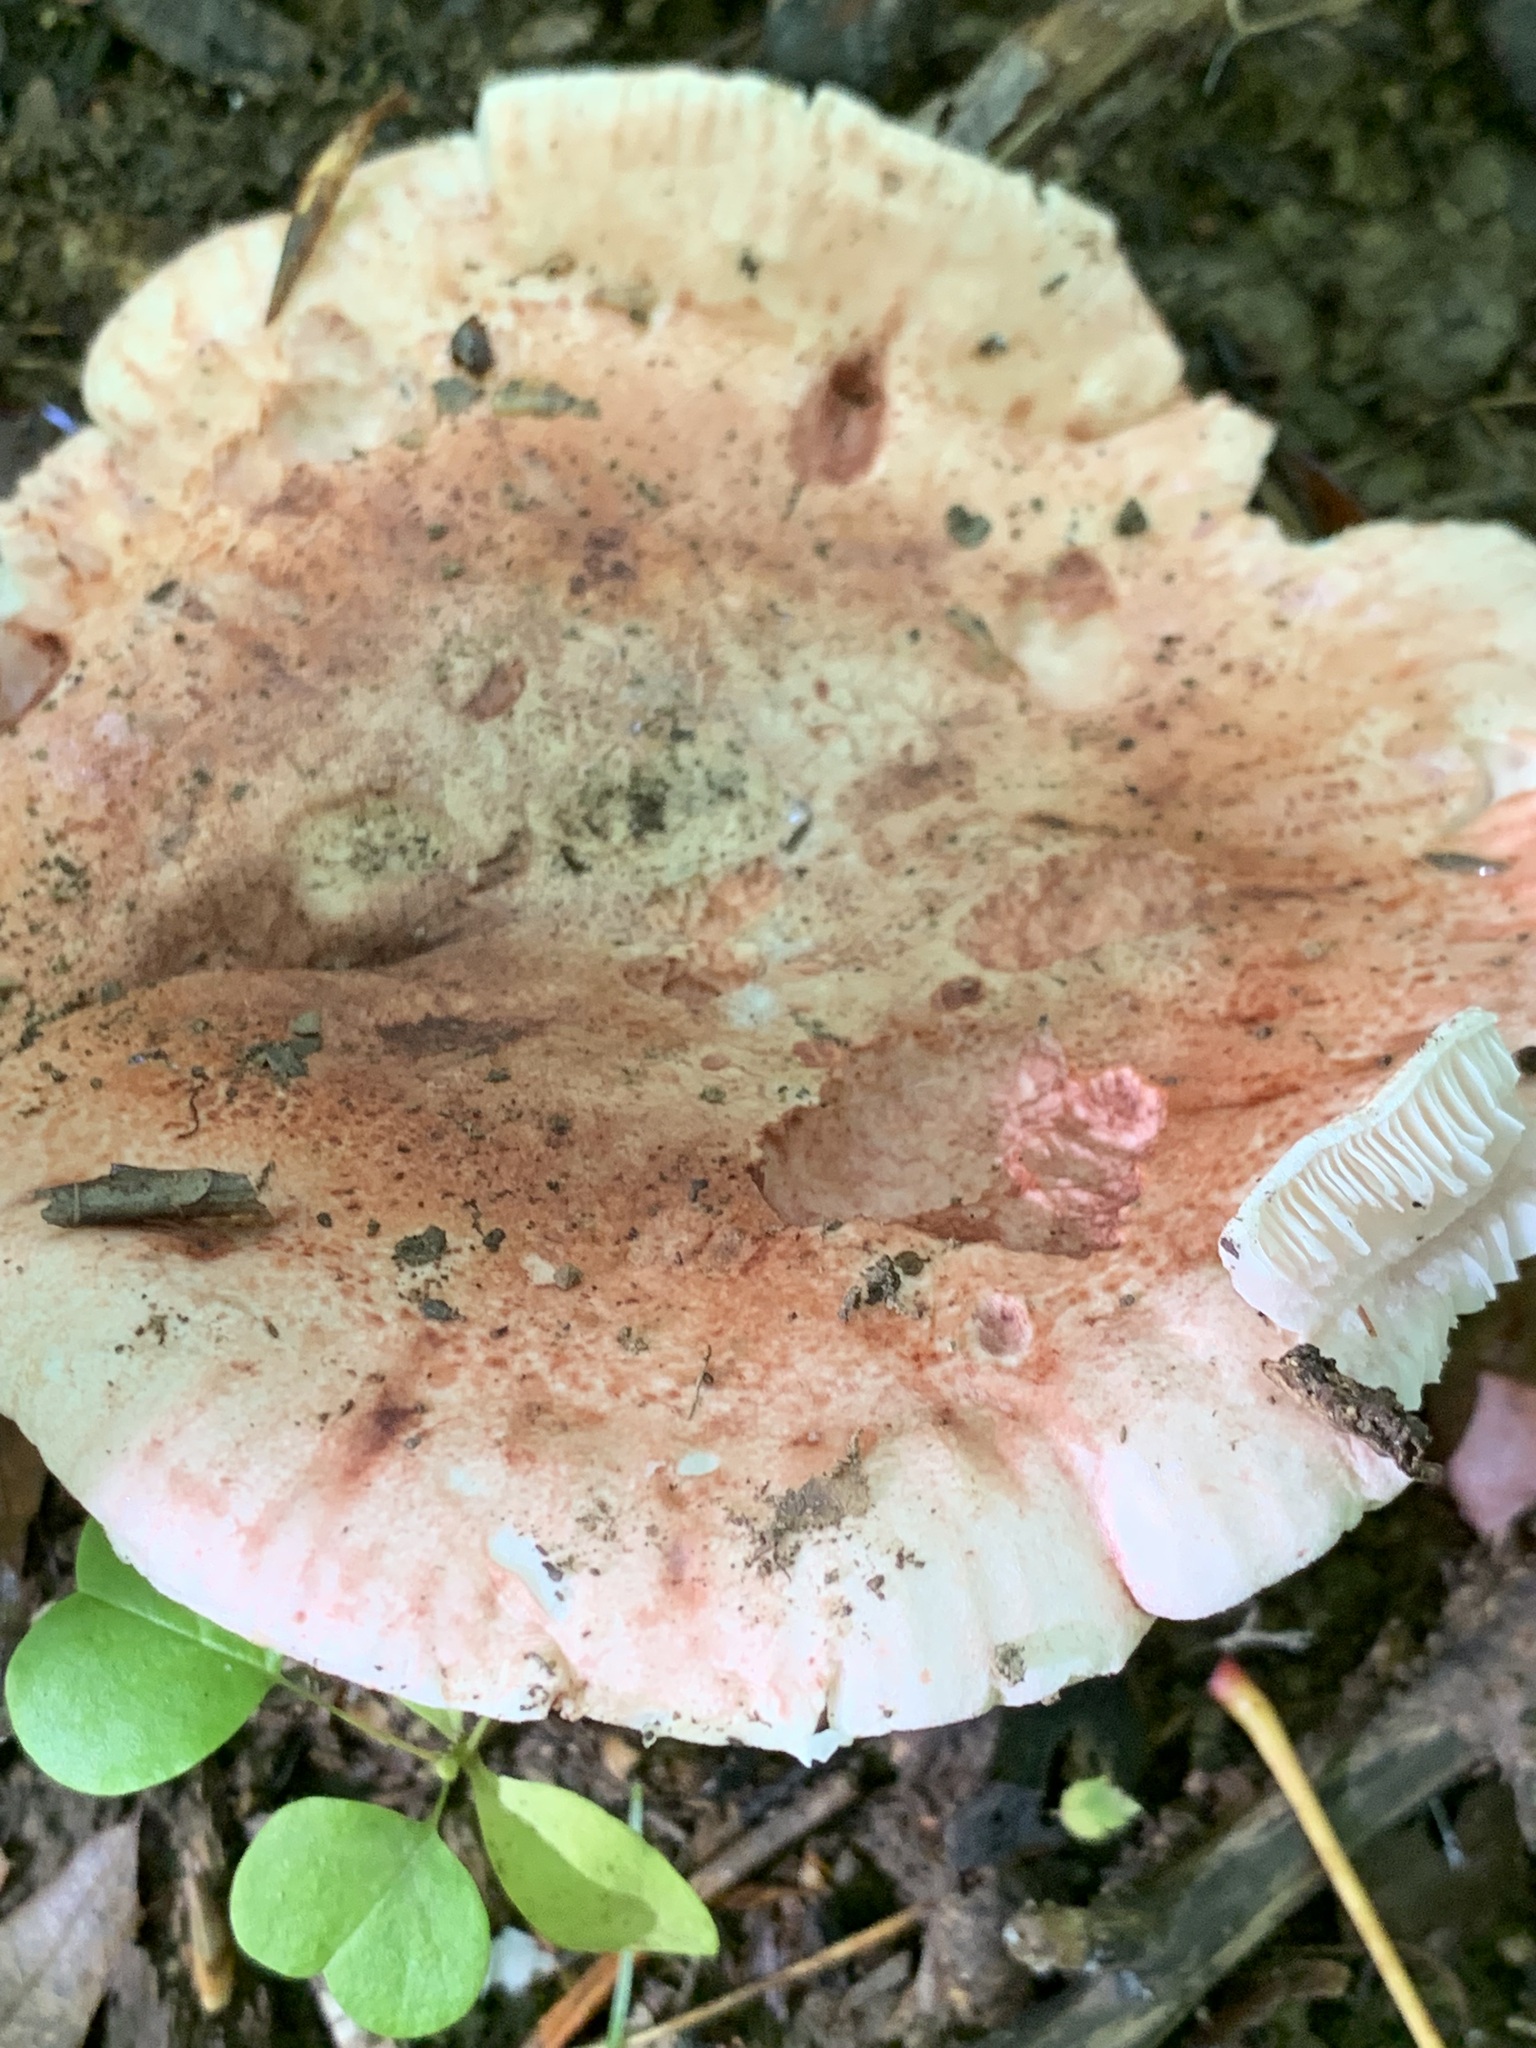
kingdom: Fungi
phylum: Basidiomycota
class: Agaricomycetes
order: Agaricales
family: Hygrophoraceae
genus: Hygrophorus
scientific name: Hygrophorus russula
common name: Pinkmottle woodwax
